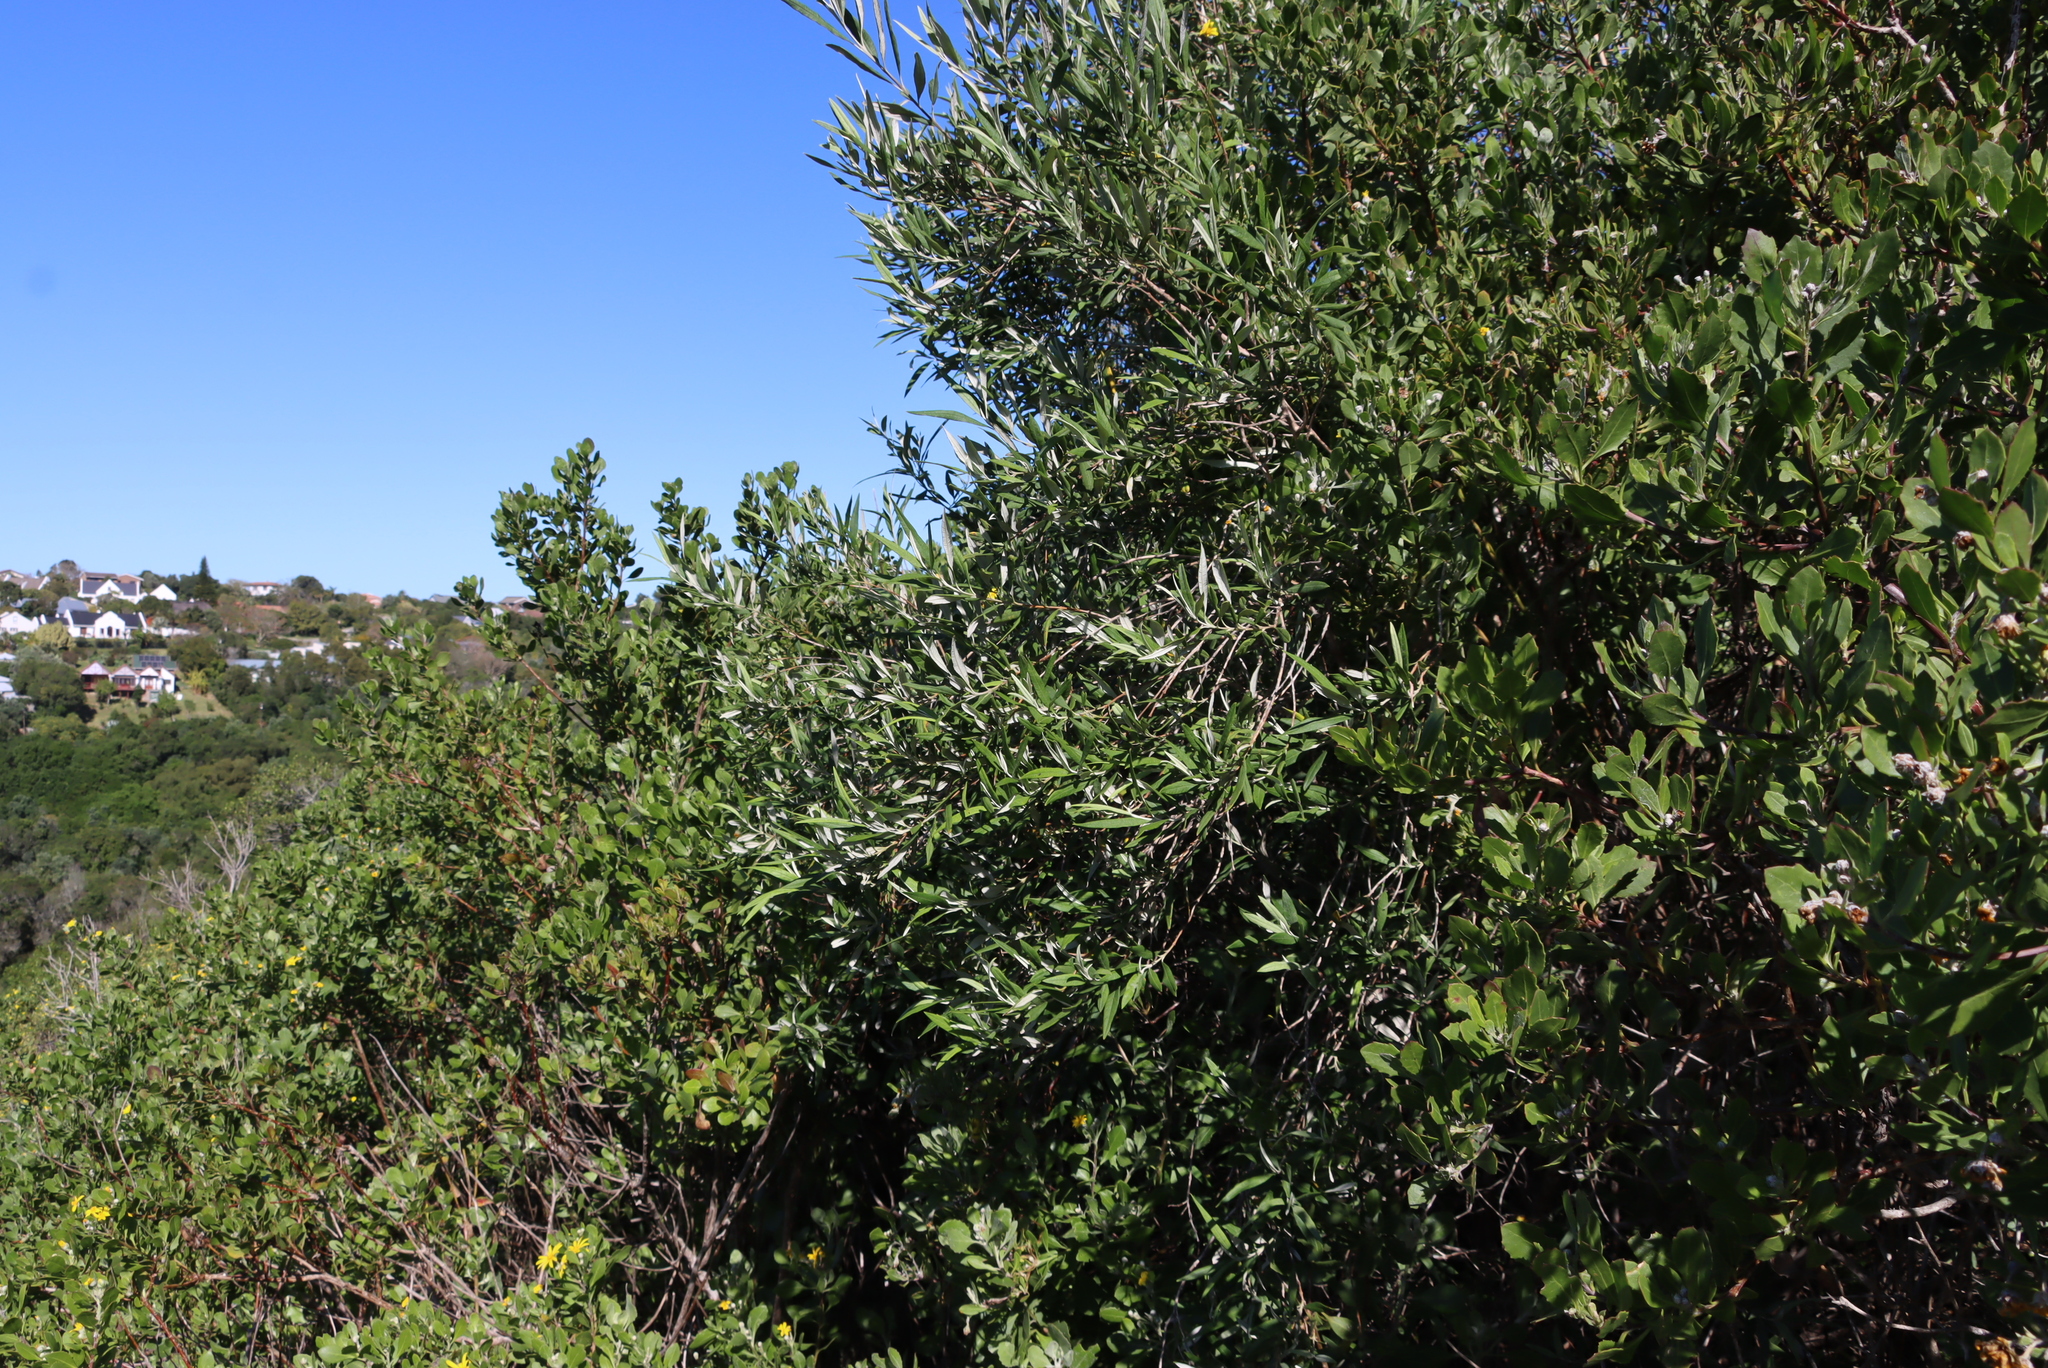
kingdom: Plantae
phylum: Tracheophyta
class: Magnoliopsida
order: Lamiales
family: Scrophulariaceae
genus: Buddleja
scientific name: Buddleja saligna
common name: False olive
